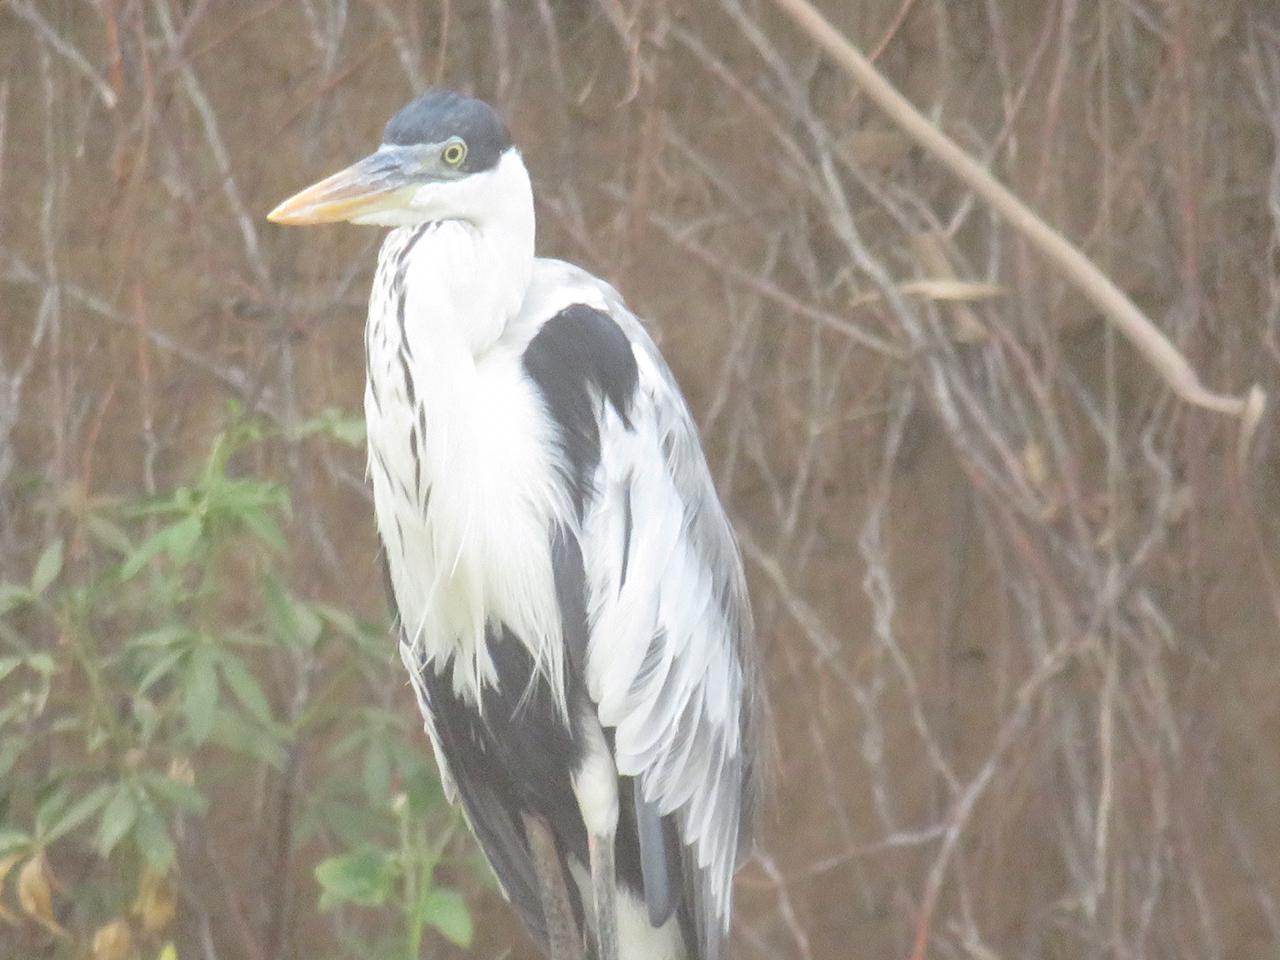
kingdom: Animalia
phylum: Chordata
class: Aves
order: Pelecaniformes
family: Ardeidae
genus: Ardea
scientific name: Ardea cocoi
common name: Cocoi heron
